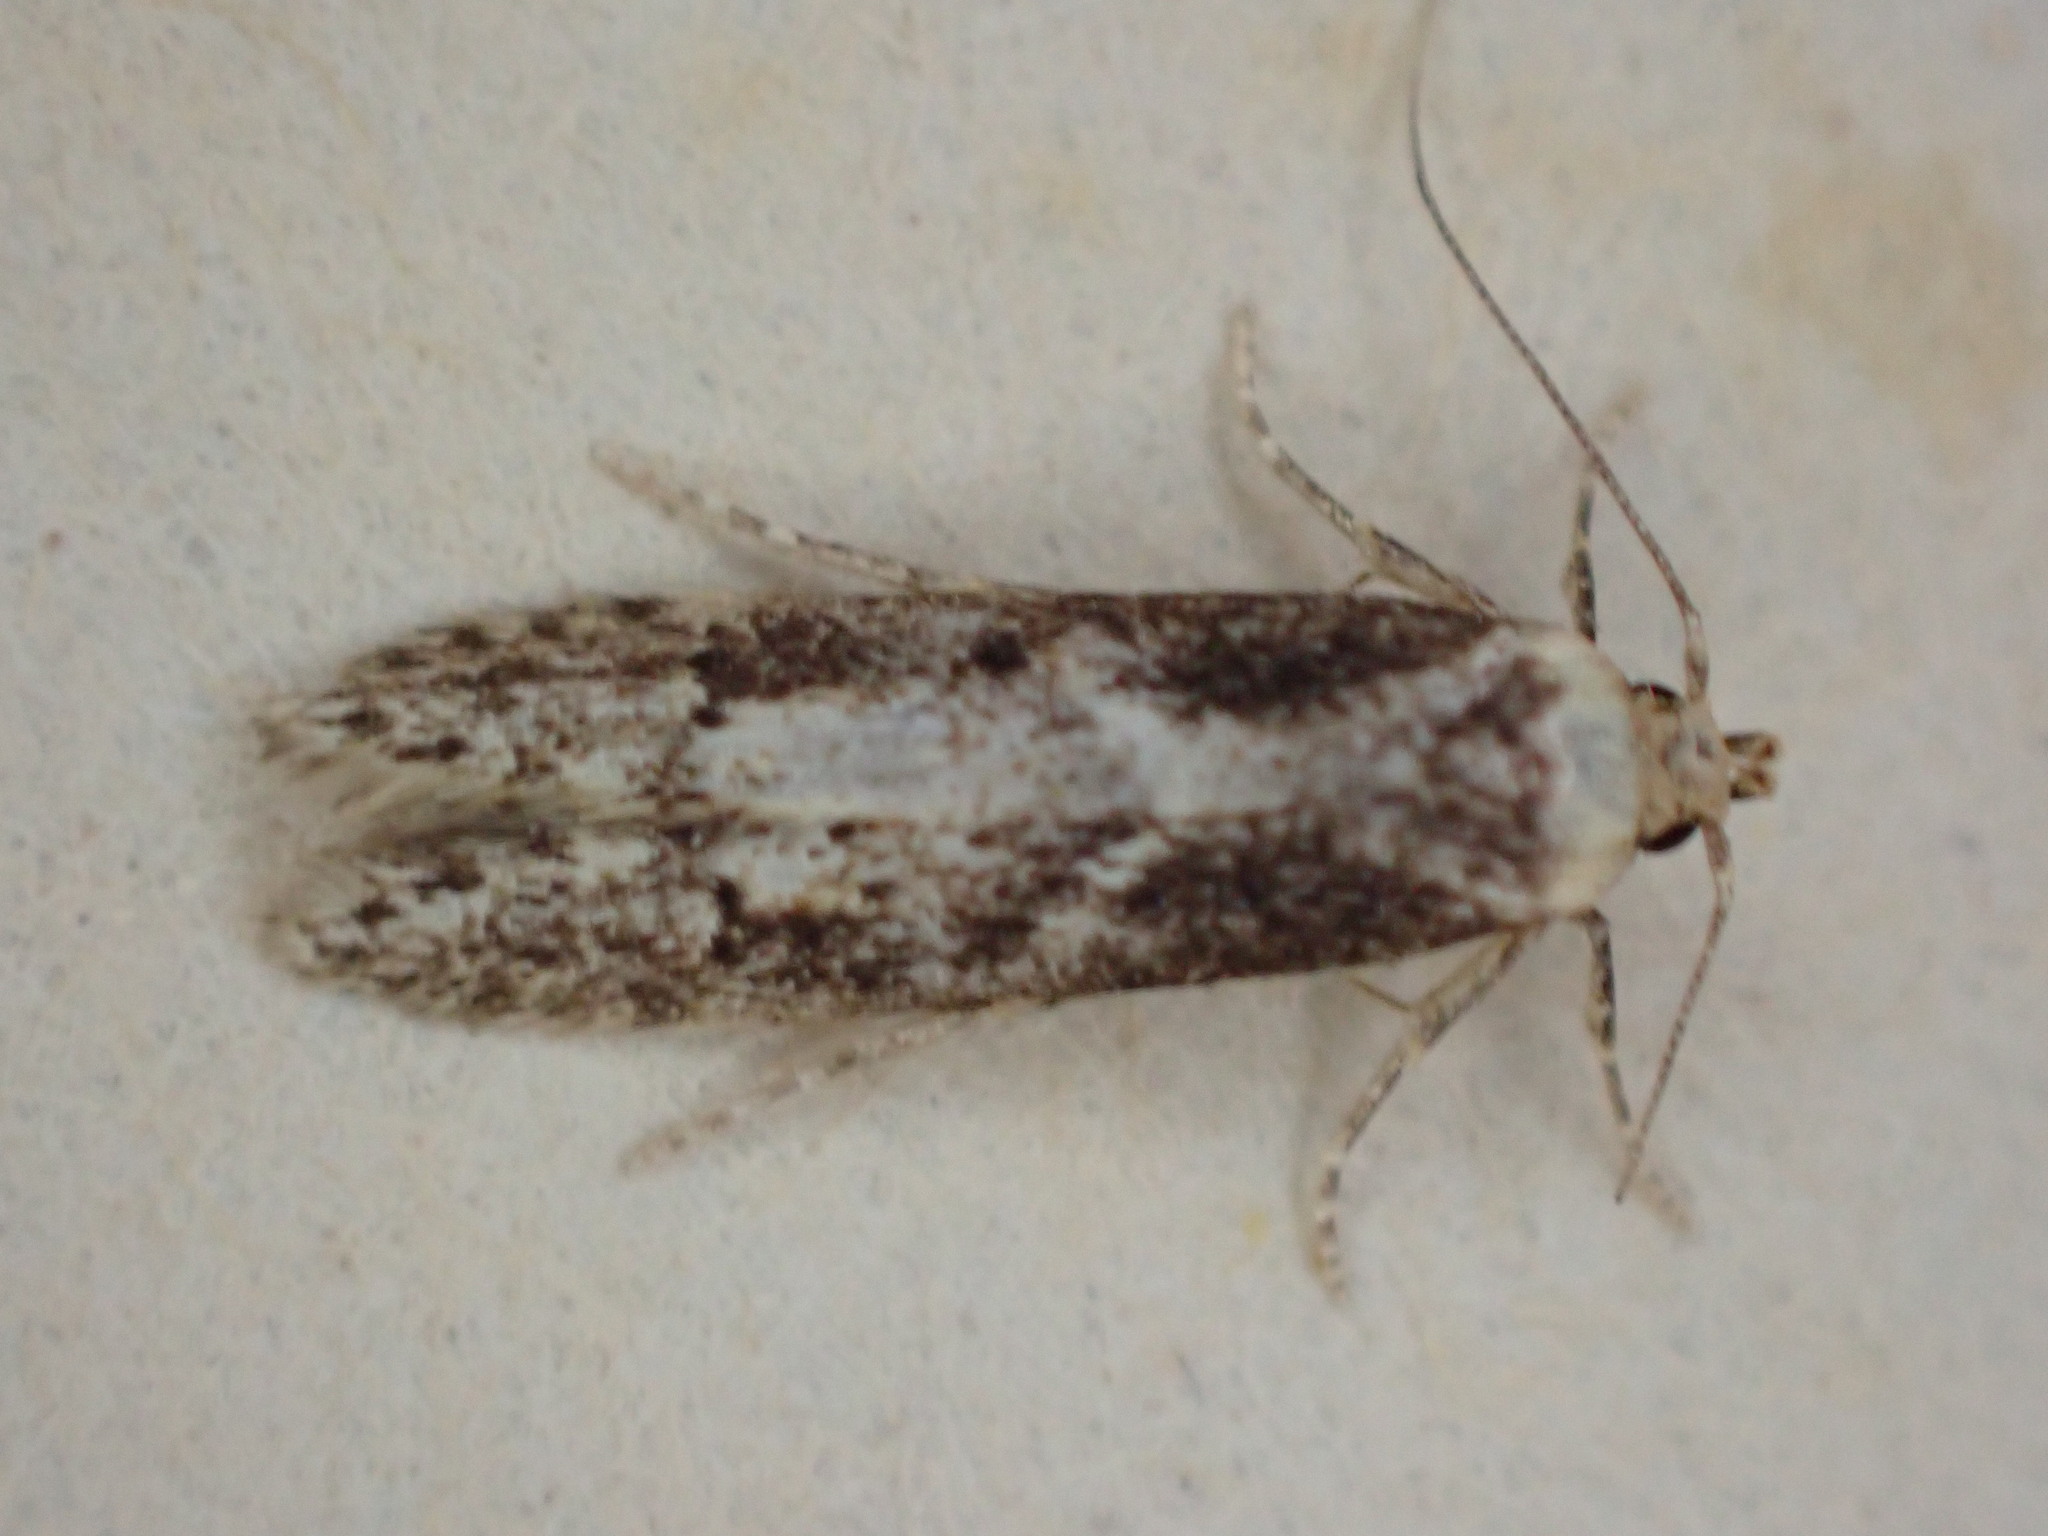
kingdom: Animalia
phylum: Arthropoda
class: Insecta
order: Lepidoptera
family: Blastobasidae
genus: Blastobasis
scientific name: Blastobasis adustella
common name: Dingy dowd
